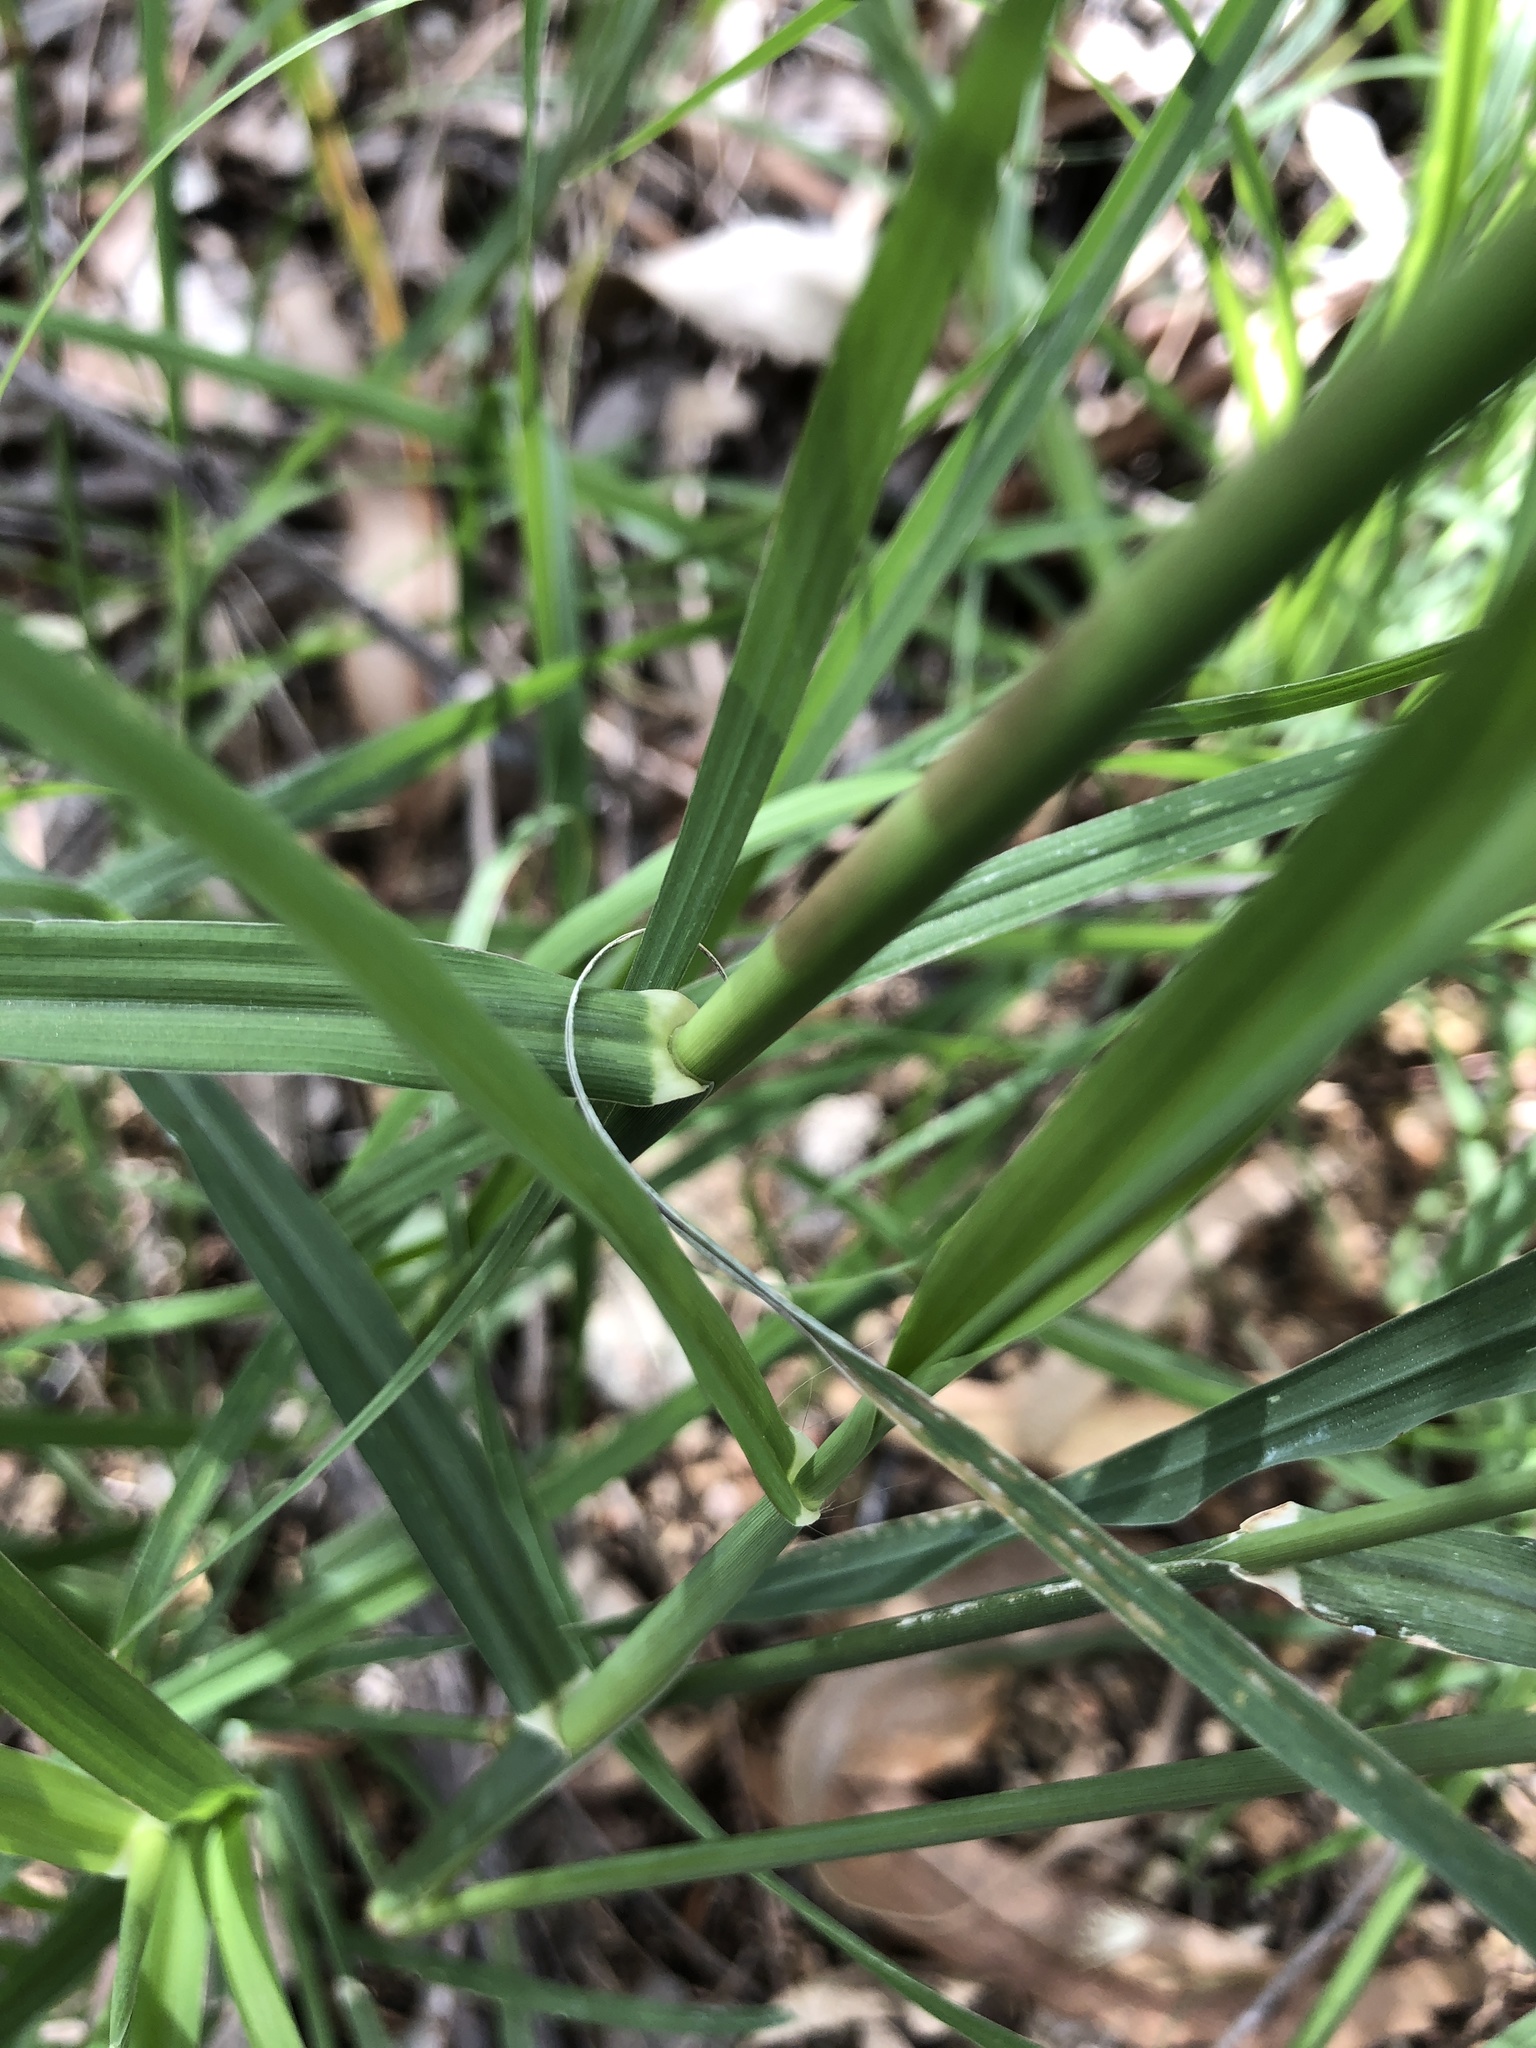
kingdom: Plantae
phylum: Tracheophyta
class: Liliopsida
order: Poales
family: Poaceae
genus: Chloris
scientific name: Chloris barbata
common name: Swollen fingergrass
